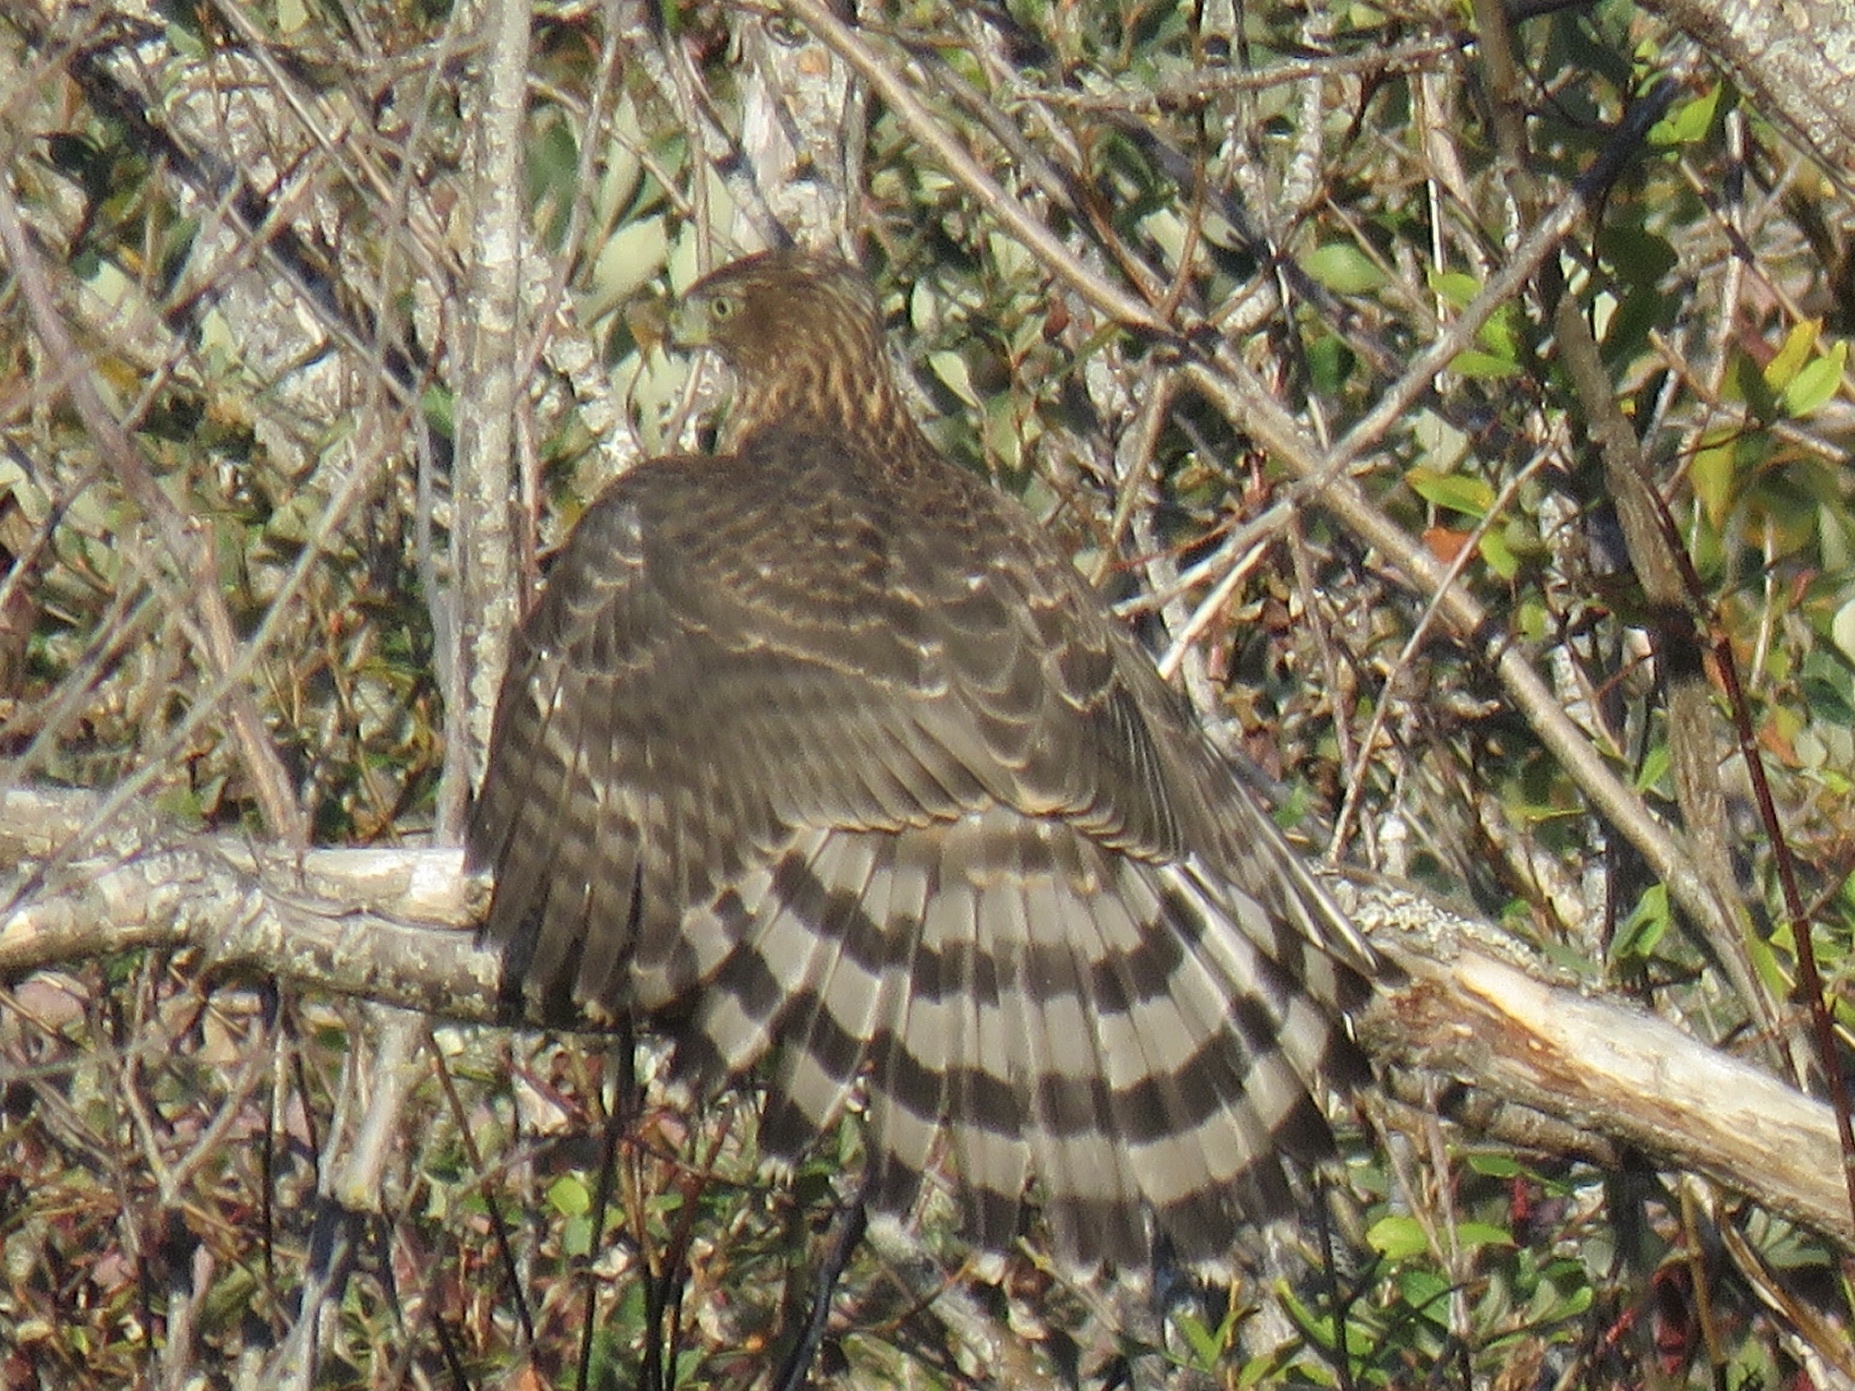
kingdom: Animalia
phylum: Chordata
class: Aves
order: Accipitriformes
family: Accipitridae
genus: Accipiter
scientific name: Accipiter cooperii
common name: Cooper's hawk
